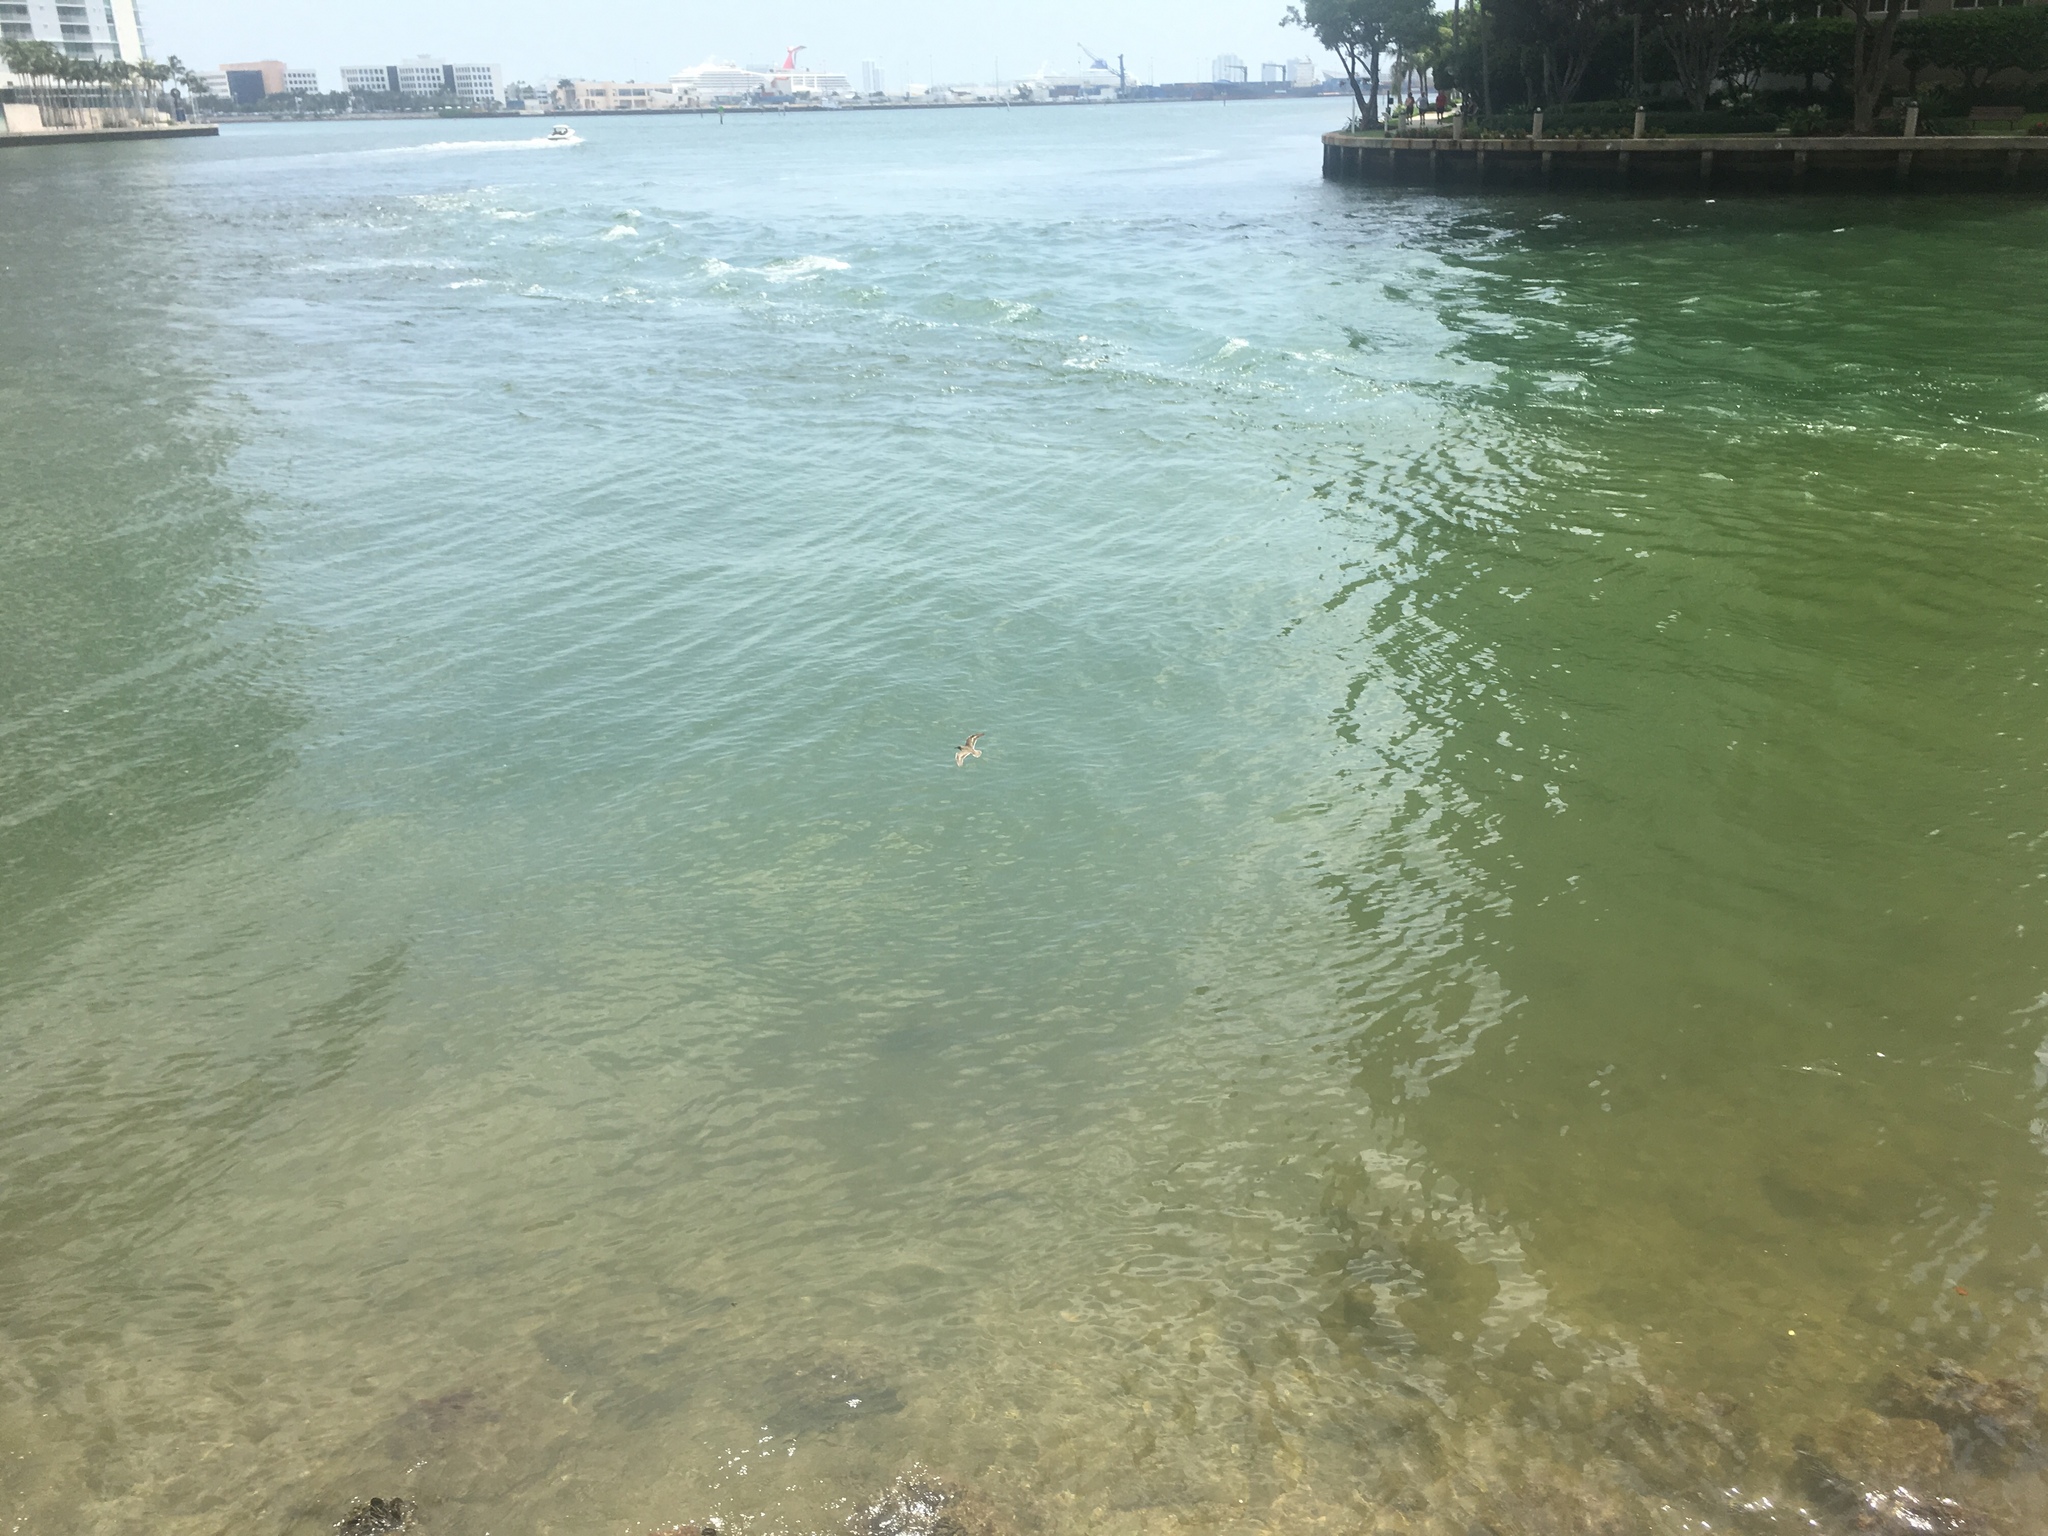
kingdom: Animalia
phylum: Chordata
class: Aves
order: Charadriiformes
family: Scolopacidae
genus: Actitis
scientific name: Actitis macularius
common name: Spotted sandpiper
